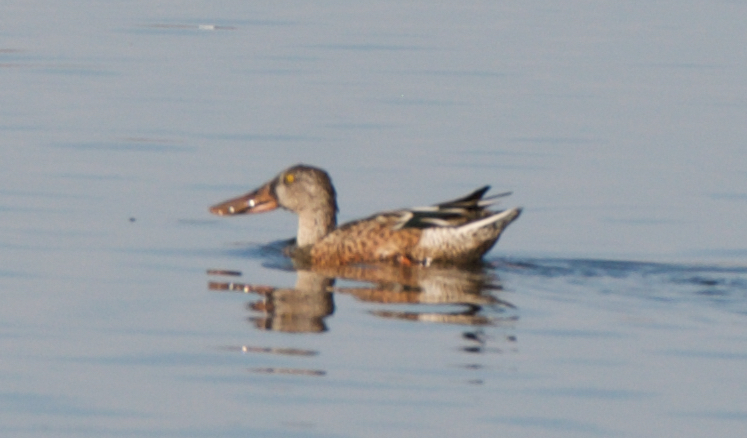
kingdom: Animalia
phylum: Chordata
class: Aves
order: Anseriformes
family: Anatidae
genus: Spatula
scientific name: Spatula clypeata
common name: Northern shoveler
